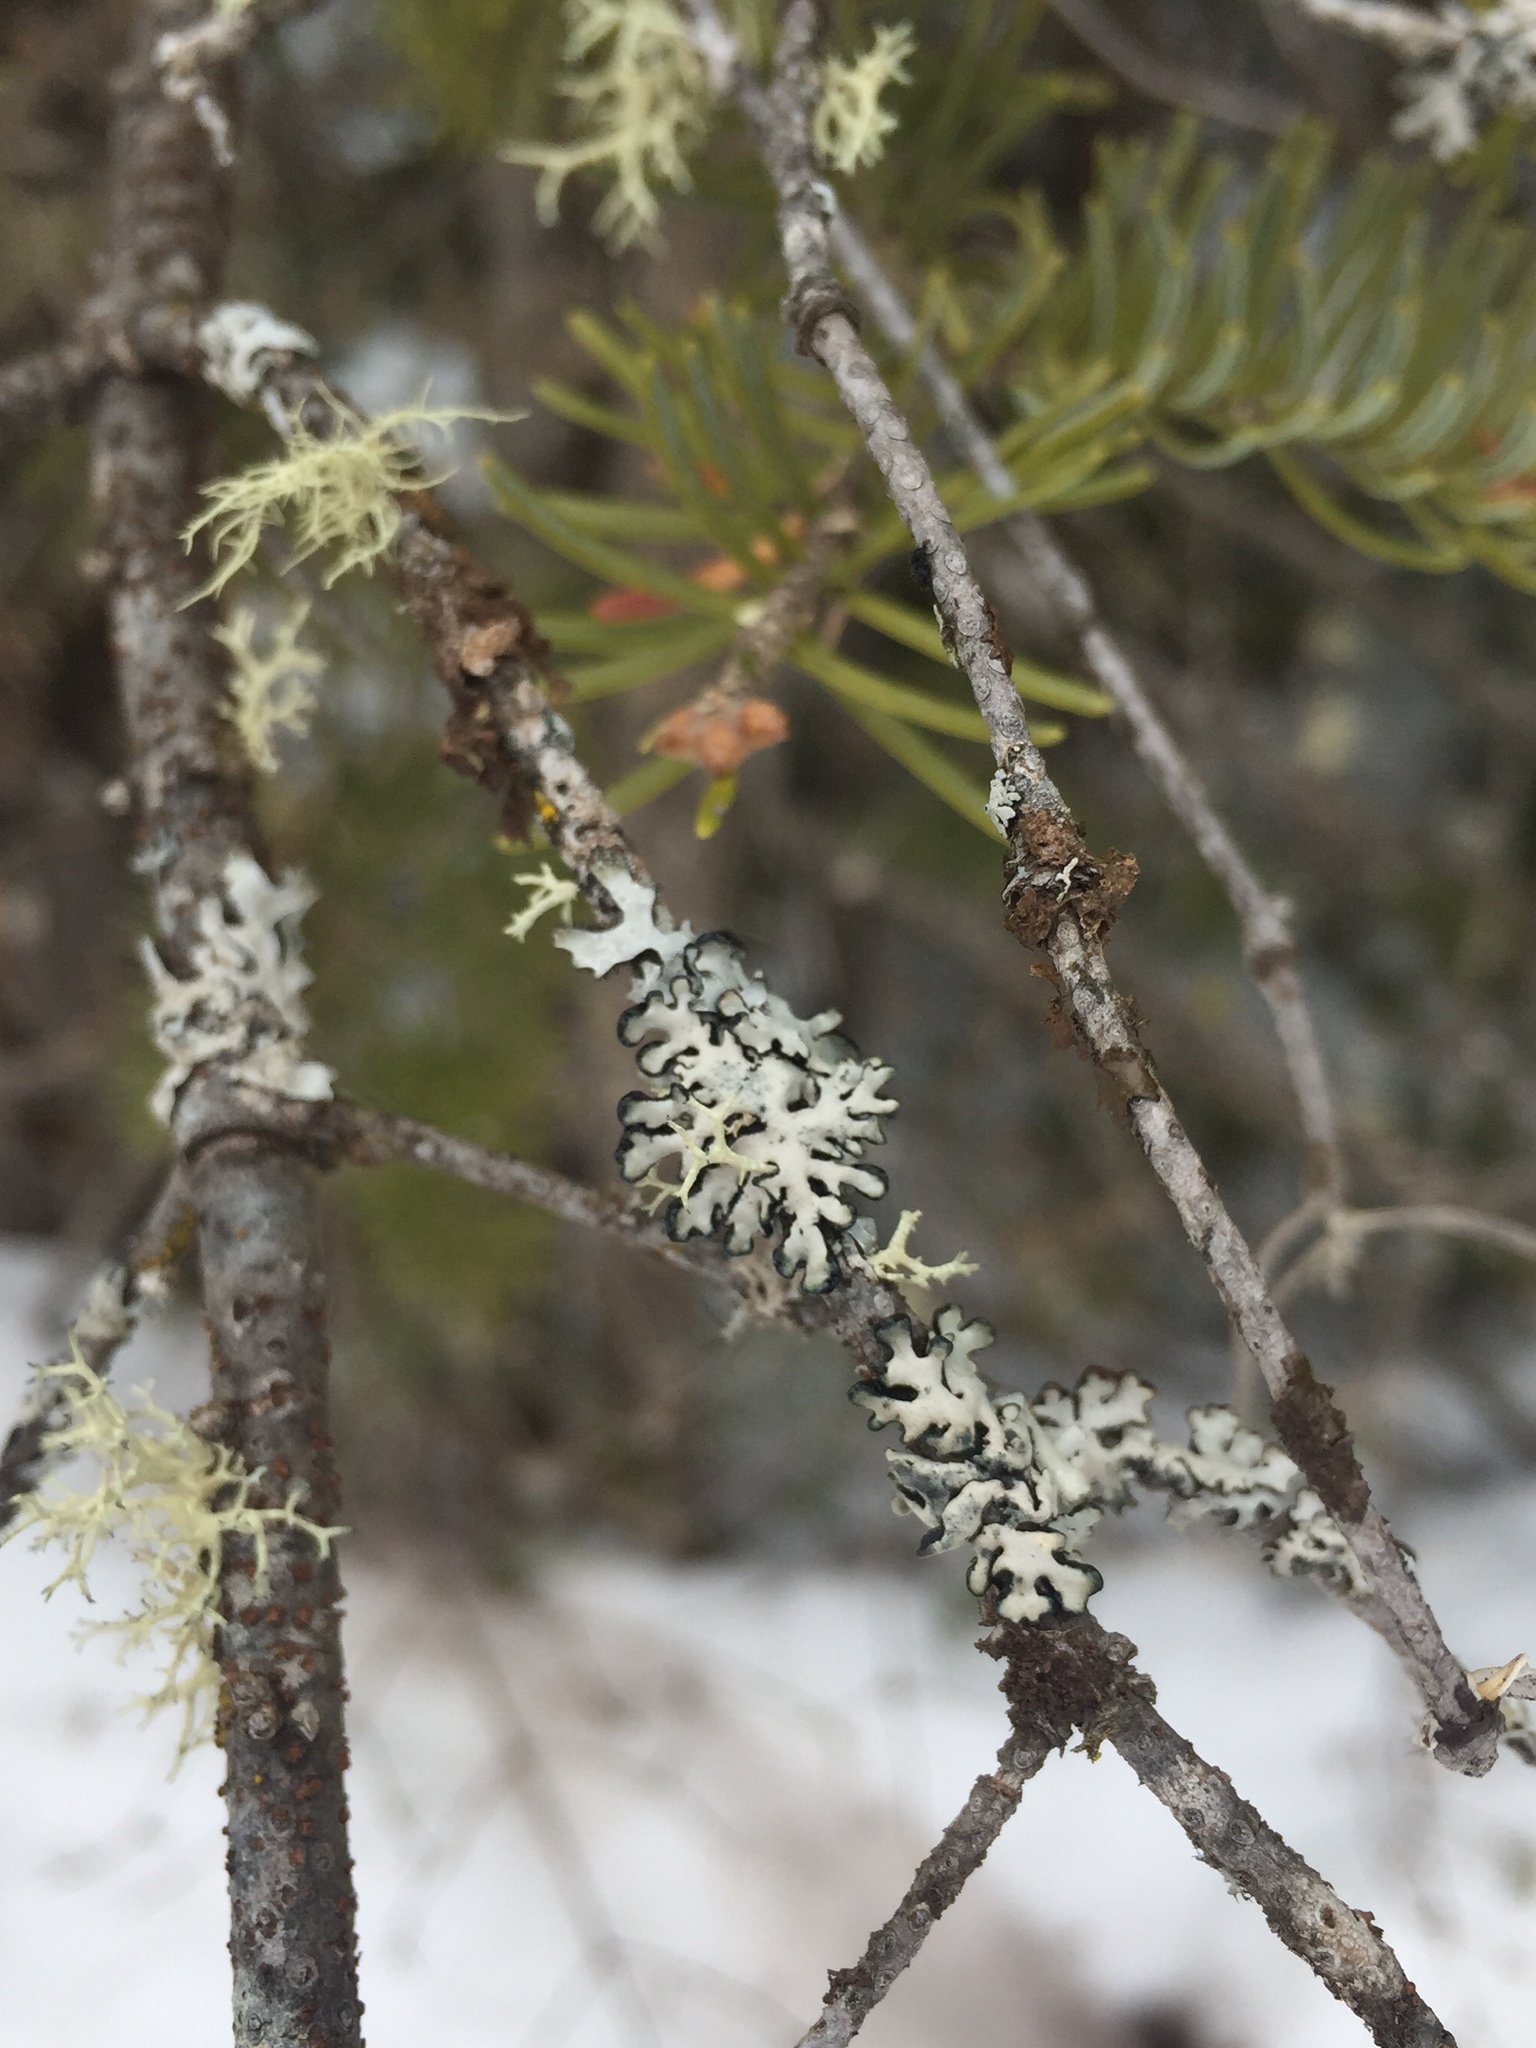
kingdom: Fungi
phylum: Ascomycota
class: Lecanoromycetes
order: Lecanorales
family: Parmeliaceae
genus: Hypogymnia
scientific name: Hypogymnia physodes
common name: Dark crottle
